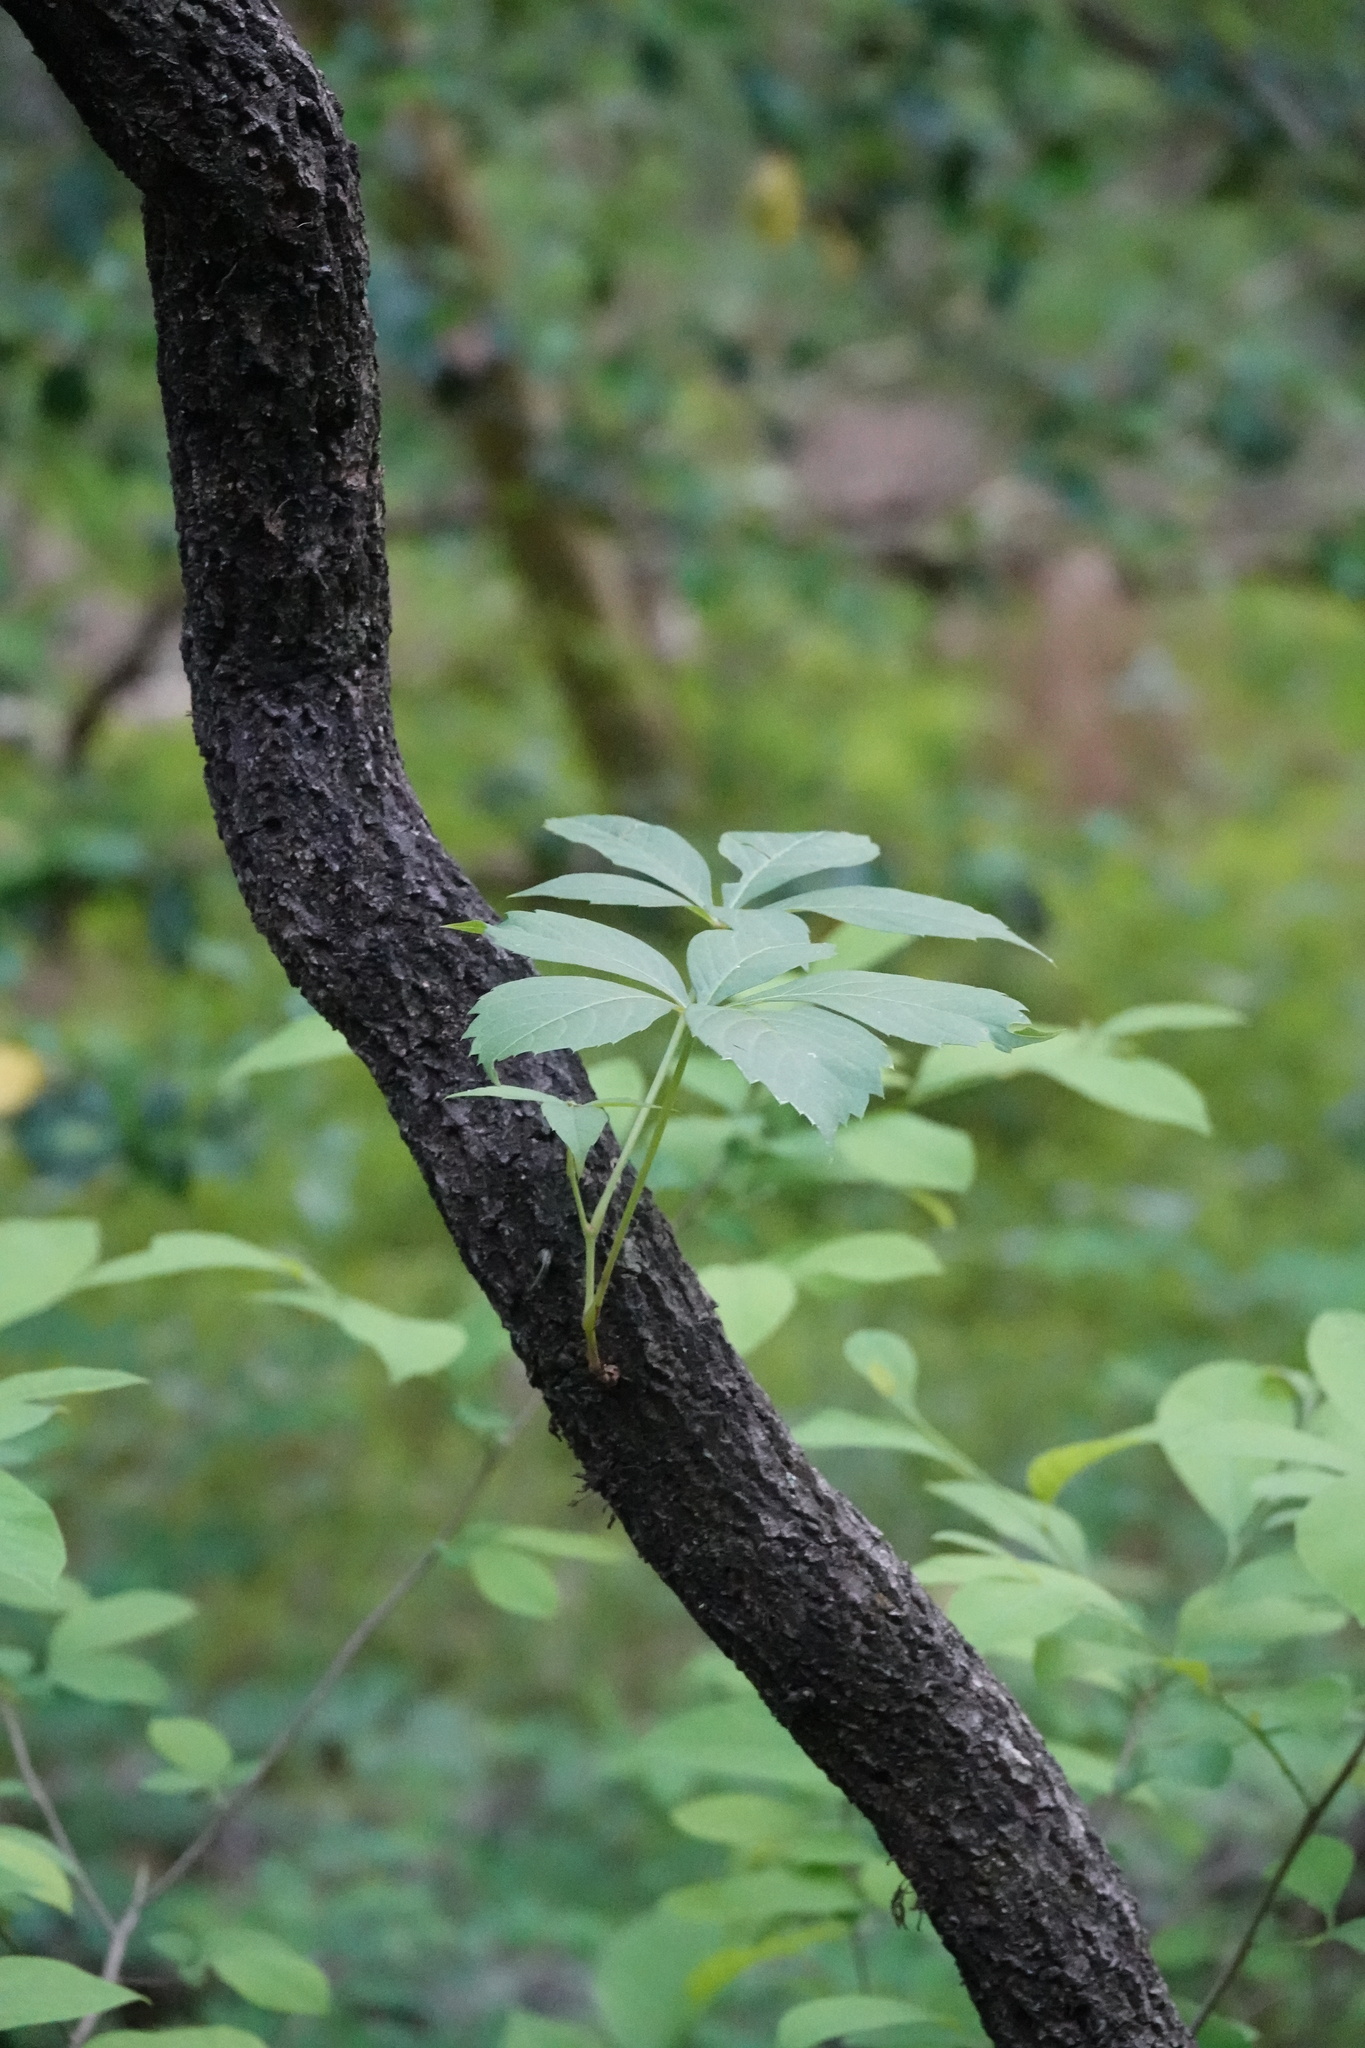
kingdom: Plantae
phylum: Tracheophyta
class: Magnoliopsida
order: Vitales
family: Vitaceae
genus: Parthenocissus
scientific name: Parthenocissus quinquefolia
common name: Virginia-creeper
